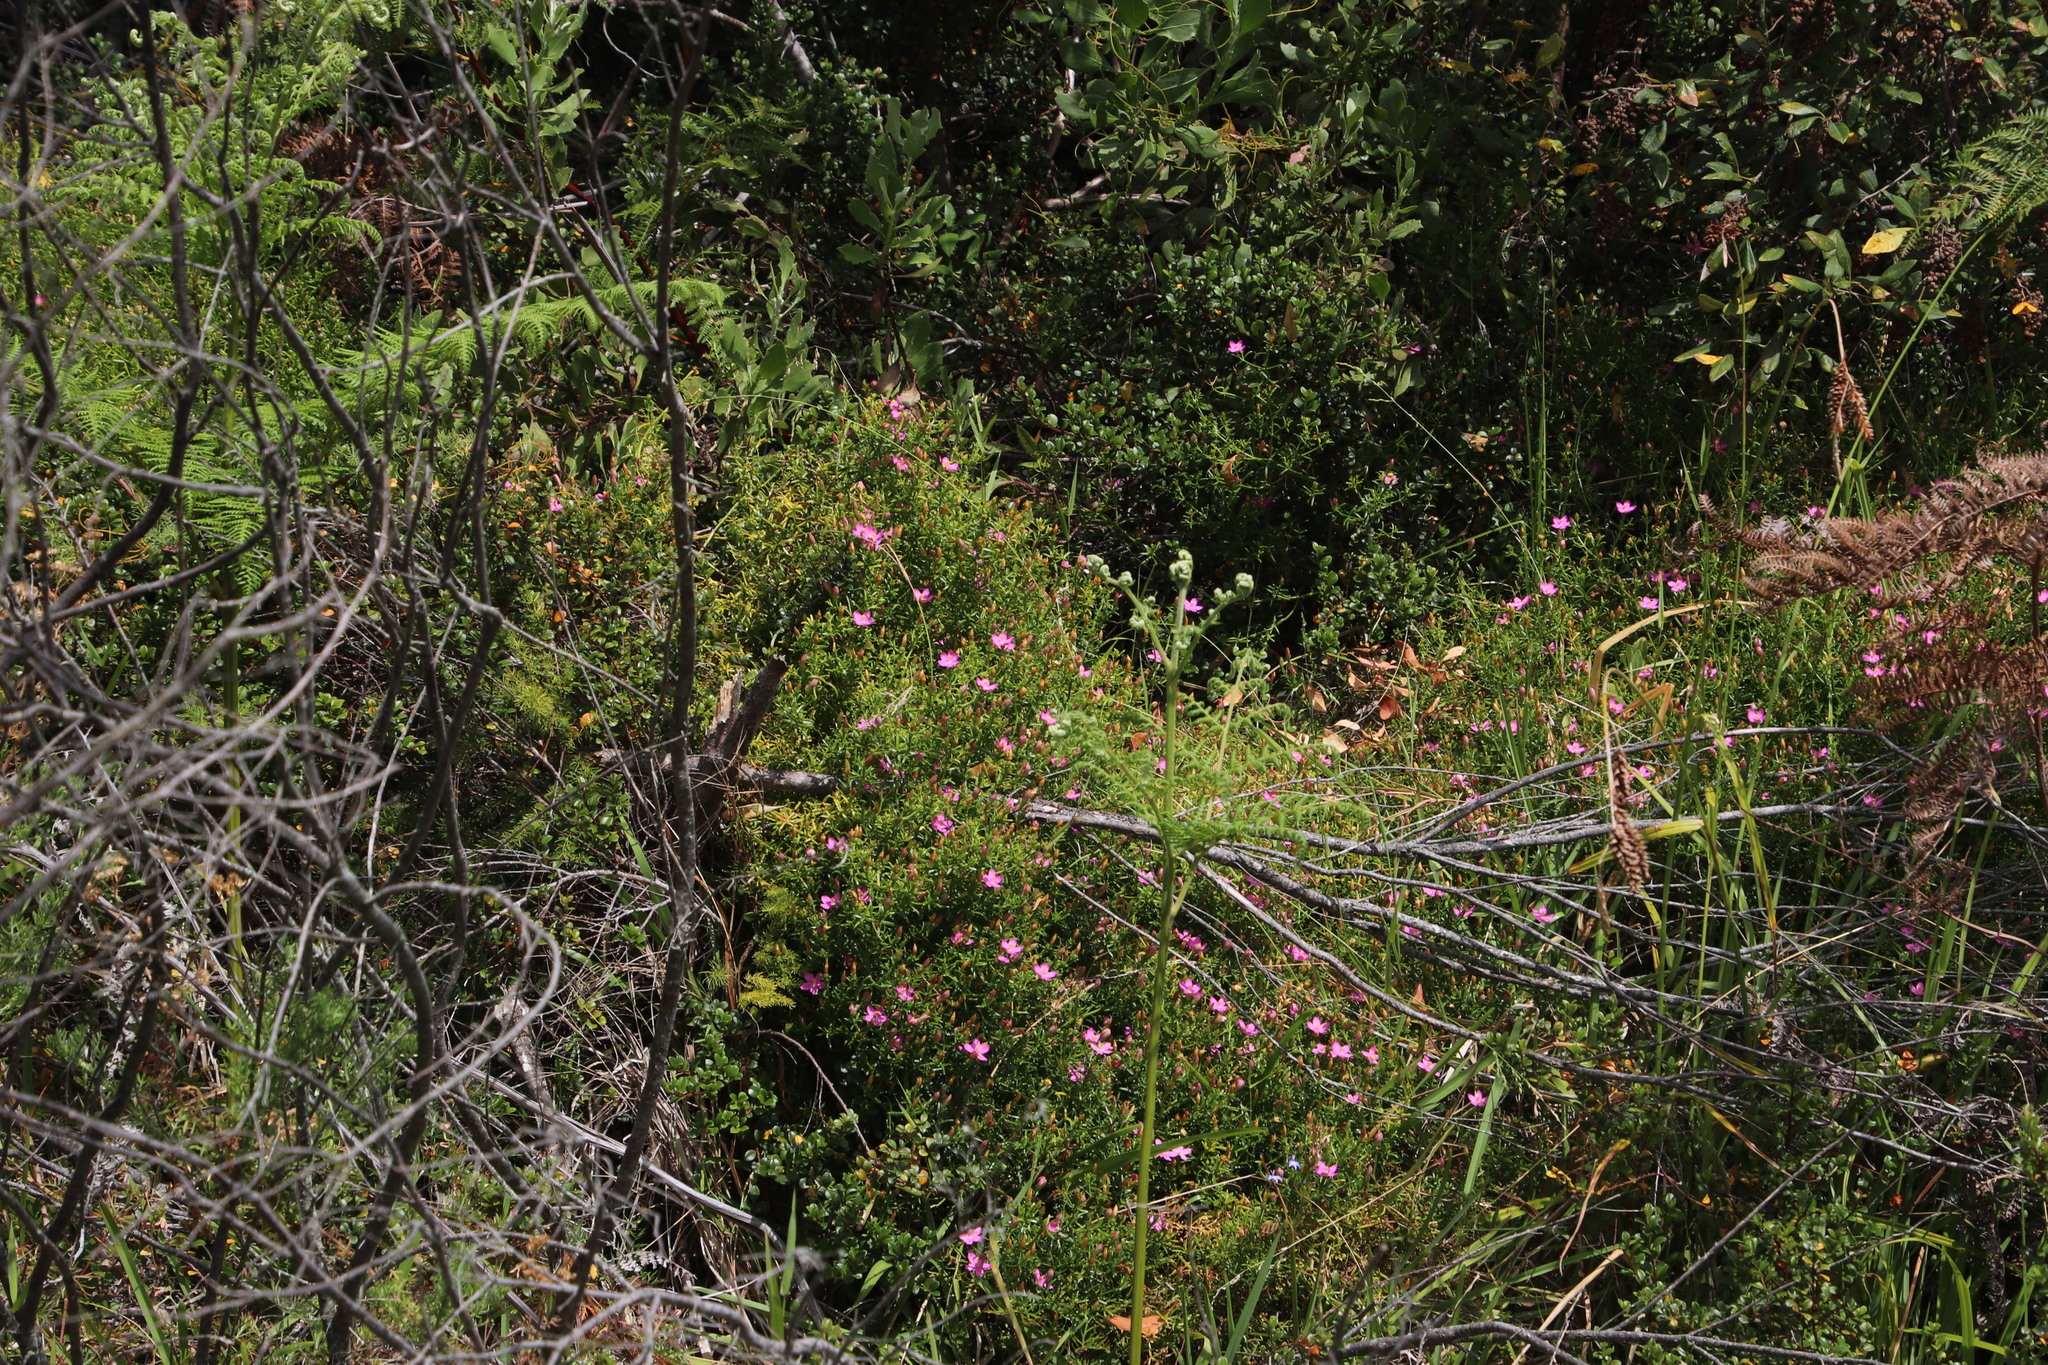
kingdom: Plantae
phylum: Tracheophyta
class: Magnoliopsida
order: Gentianales
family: Gentianaceae
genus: Chironia
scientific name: Chironia baccifera
